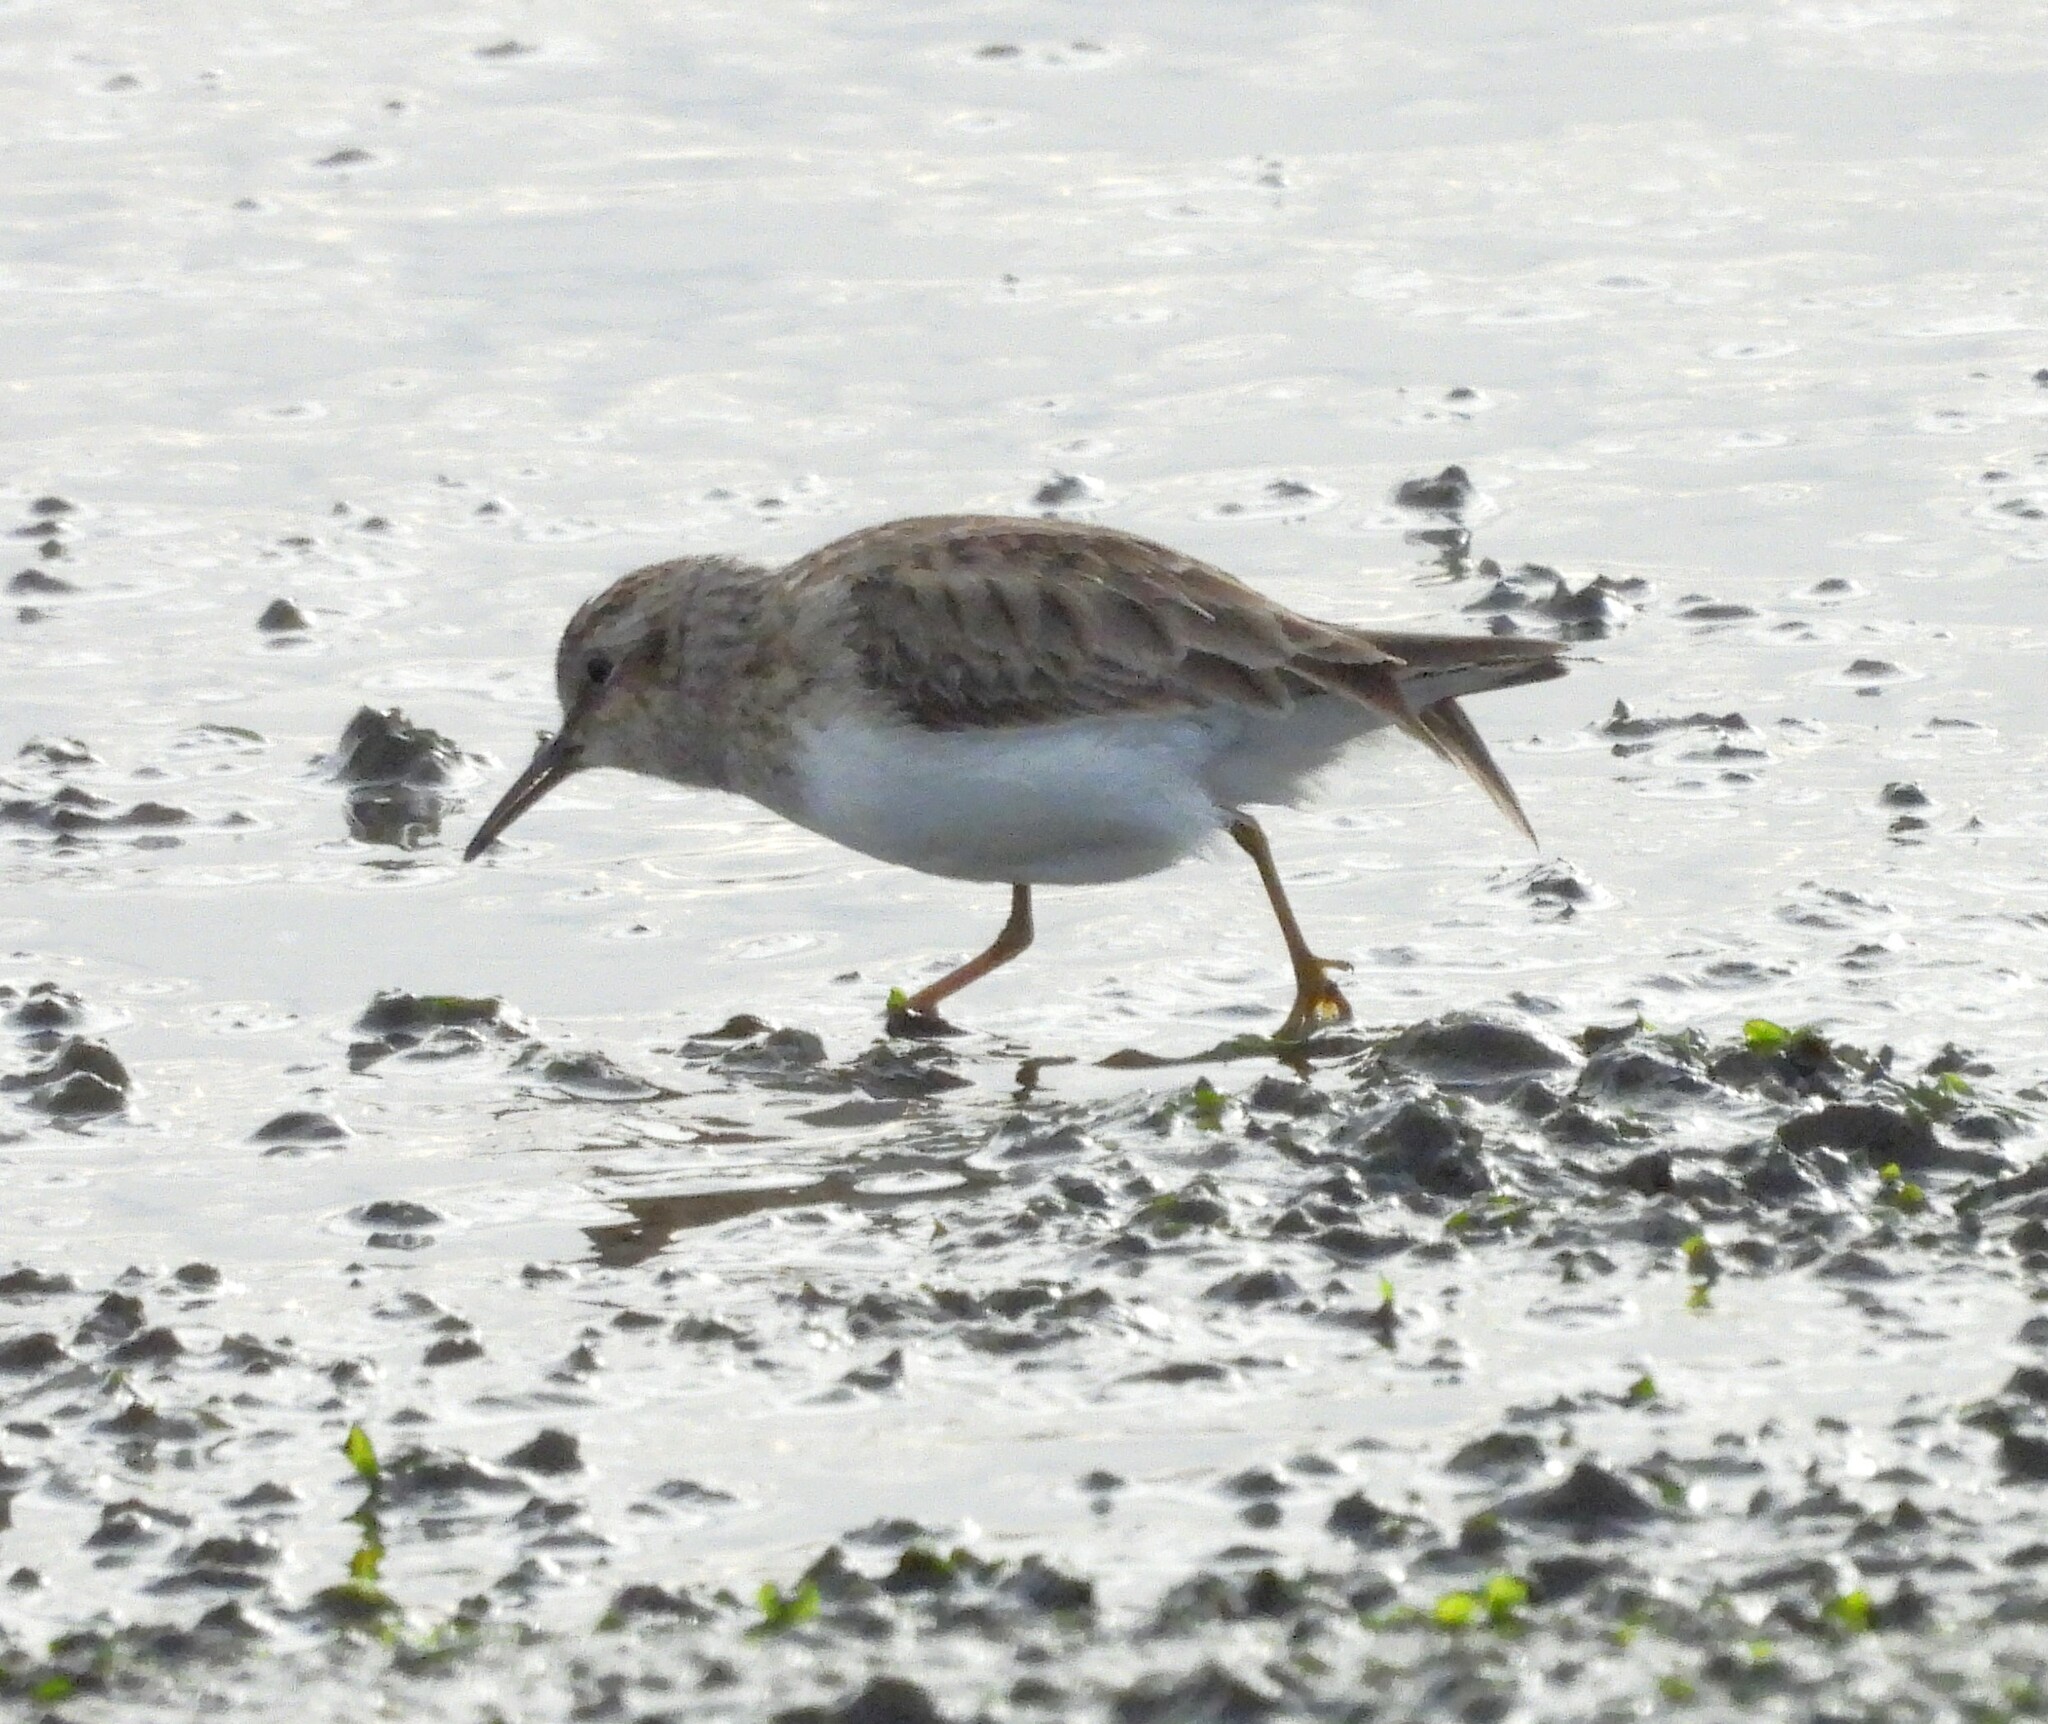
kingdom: Animalia
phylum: Chordata
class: Aves
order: Charadriiformes
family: Scolopacidae
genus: Calidris
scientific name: Calidris minutilla
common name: Least sandpiper
